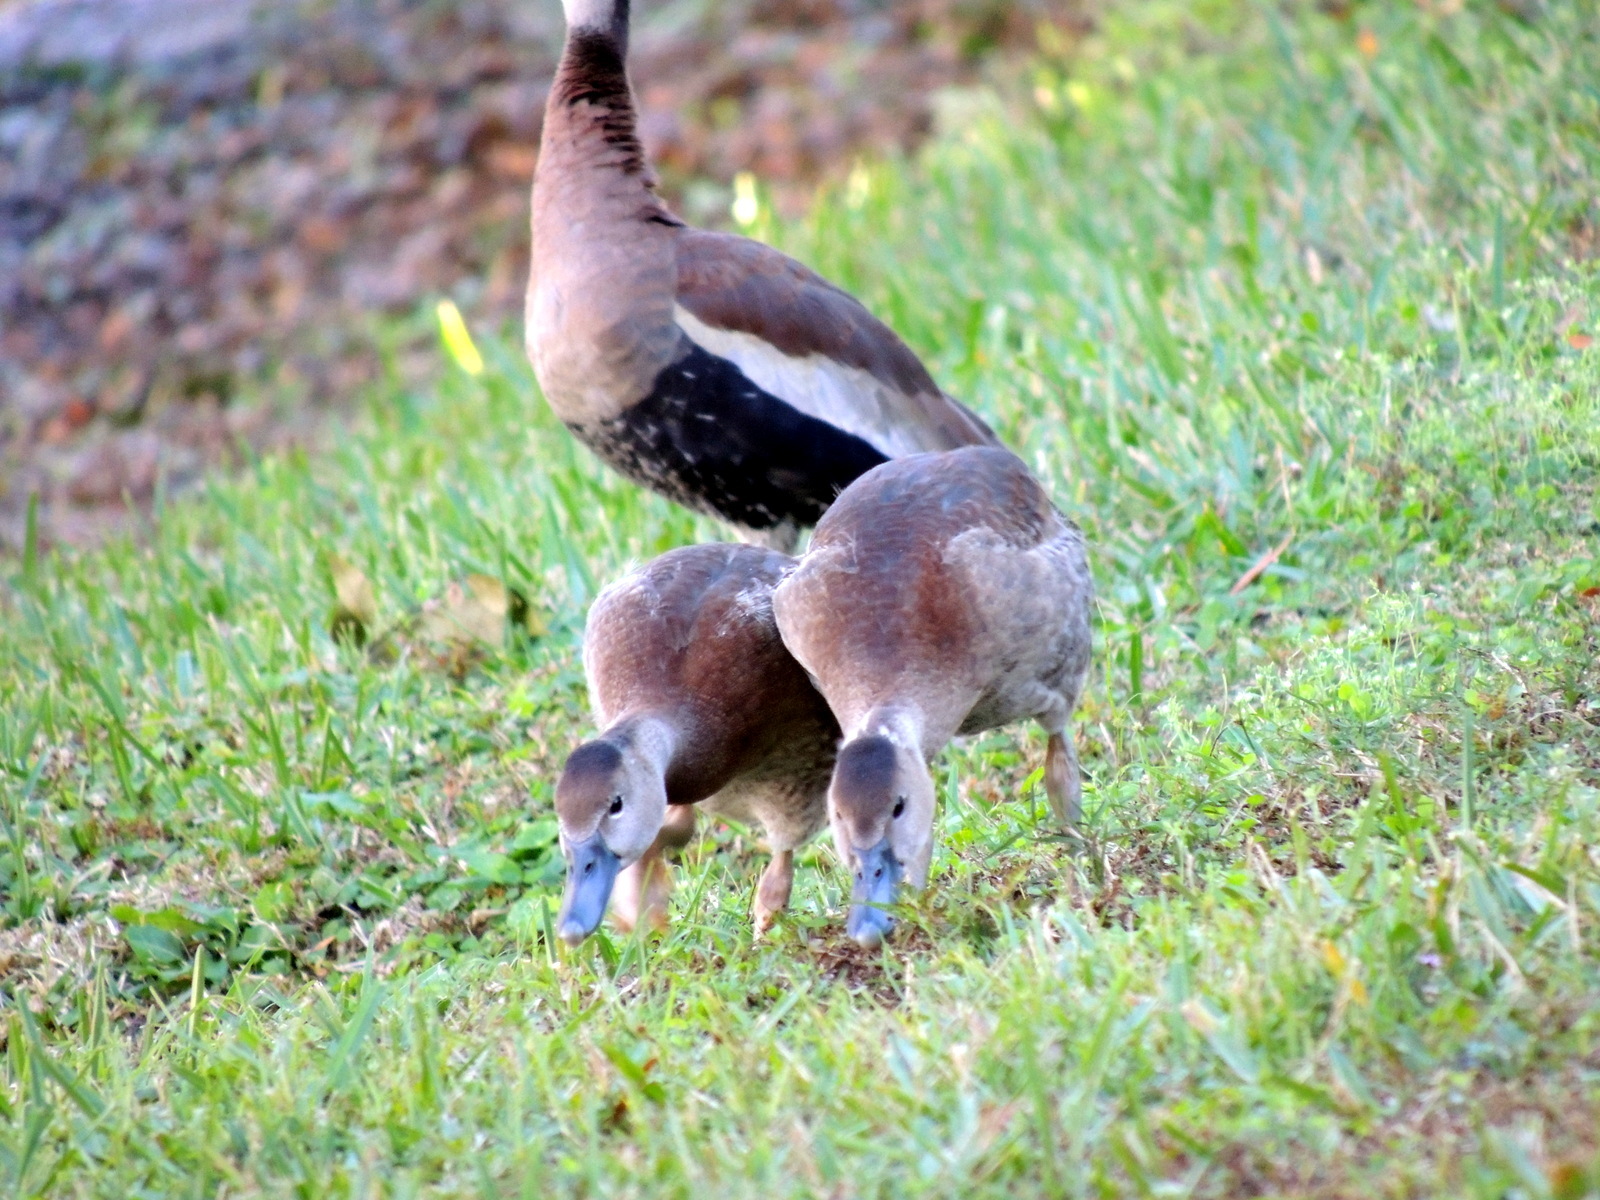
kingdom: Animalia
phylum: Chordata
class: Aves
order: Anseriformes
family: Anatidae
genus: Dendrocygna
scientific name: Dendrocygna autumnalis
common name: Black-bellied whistling duck
